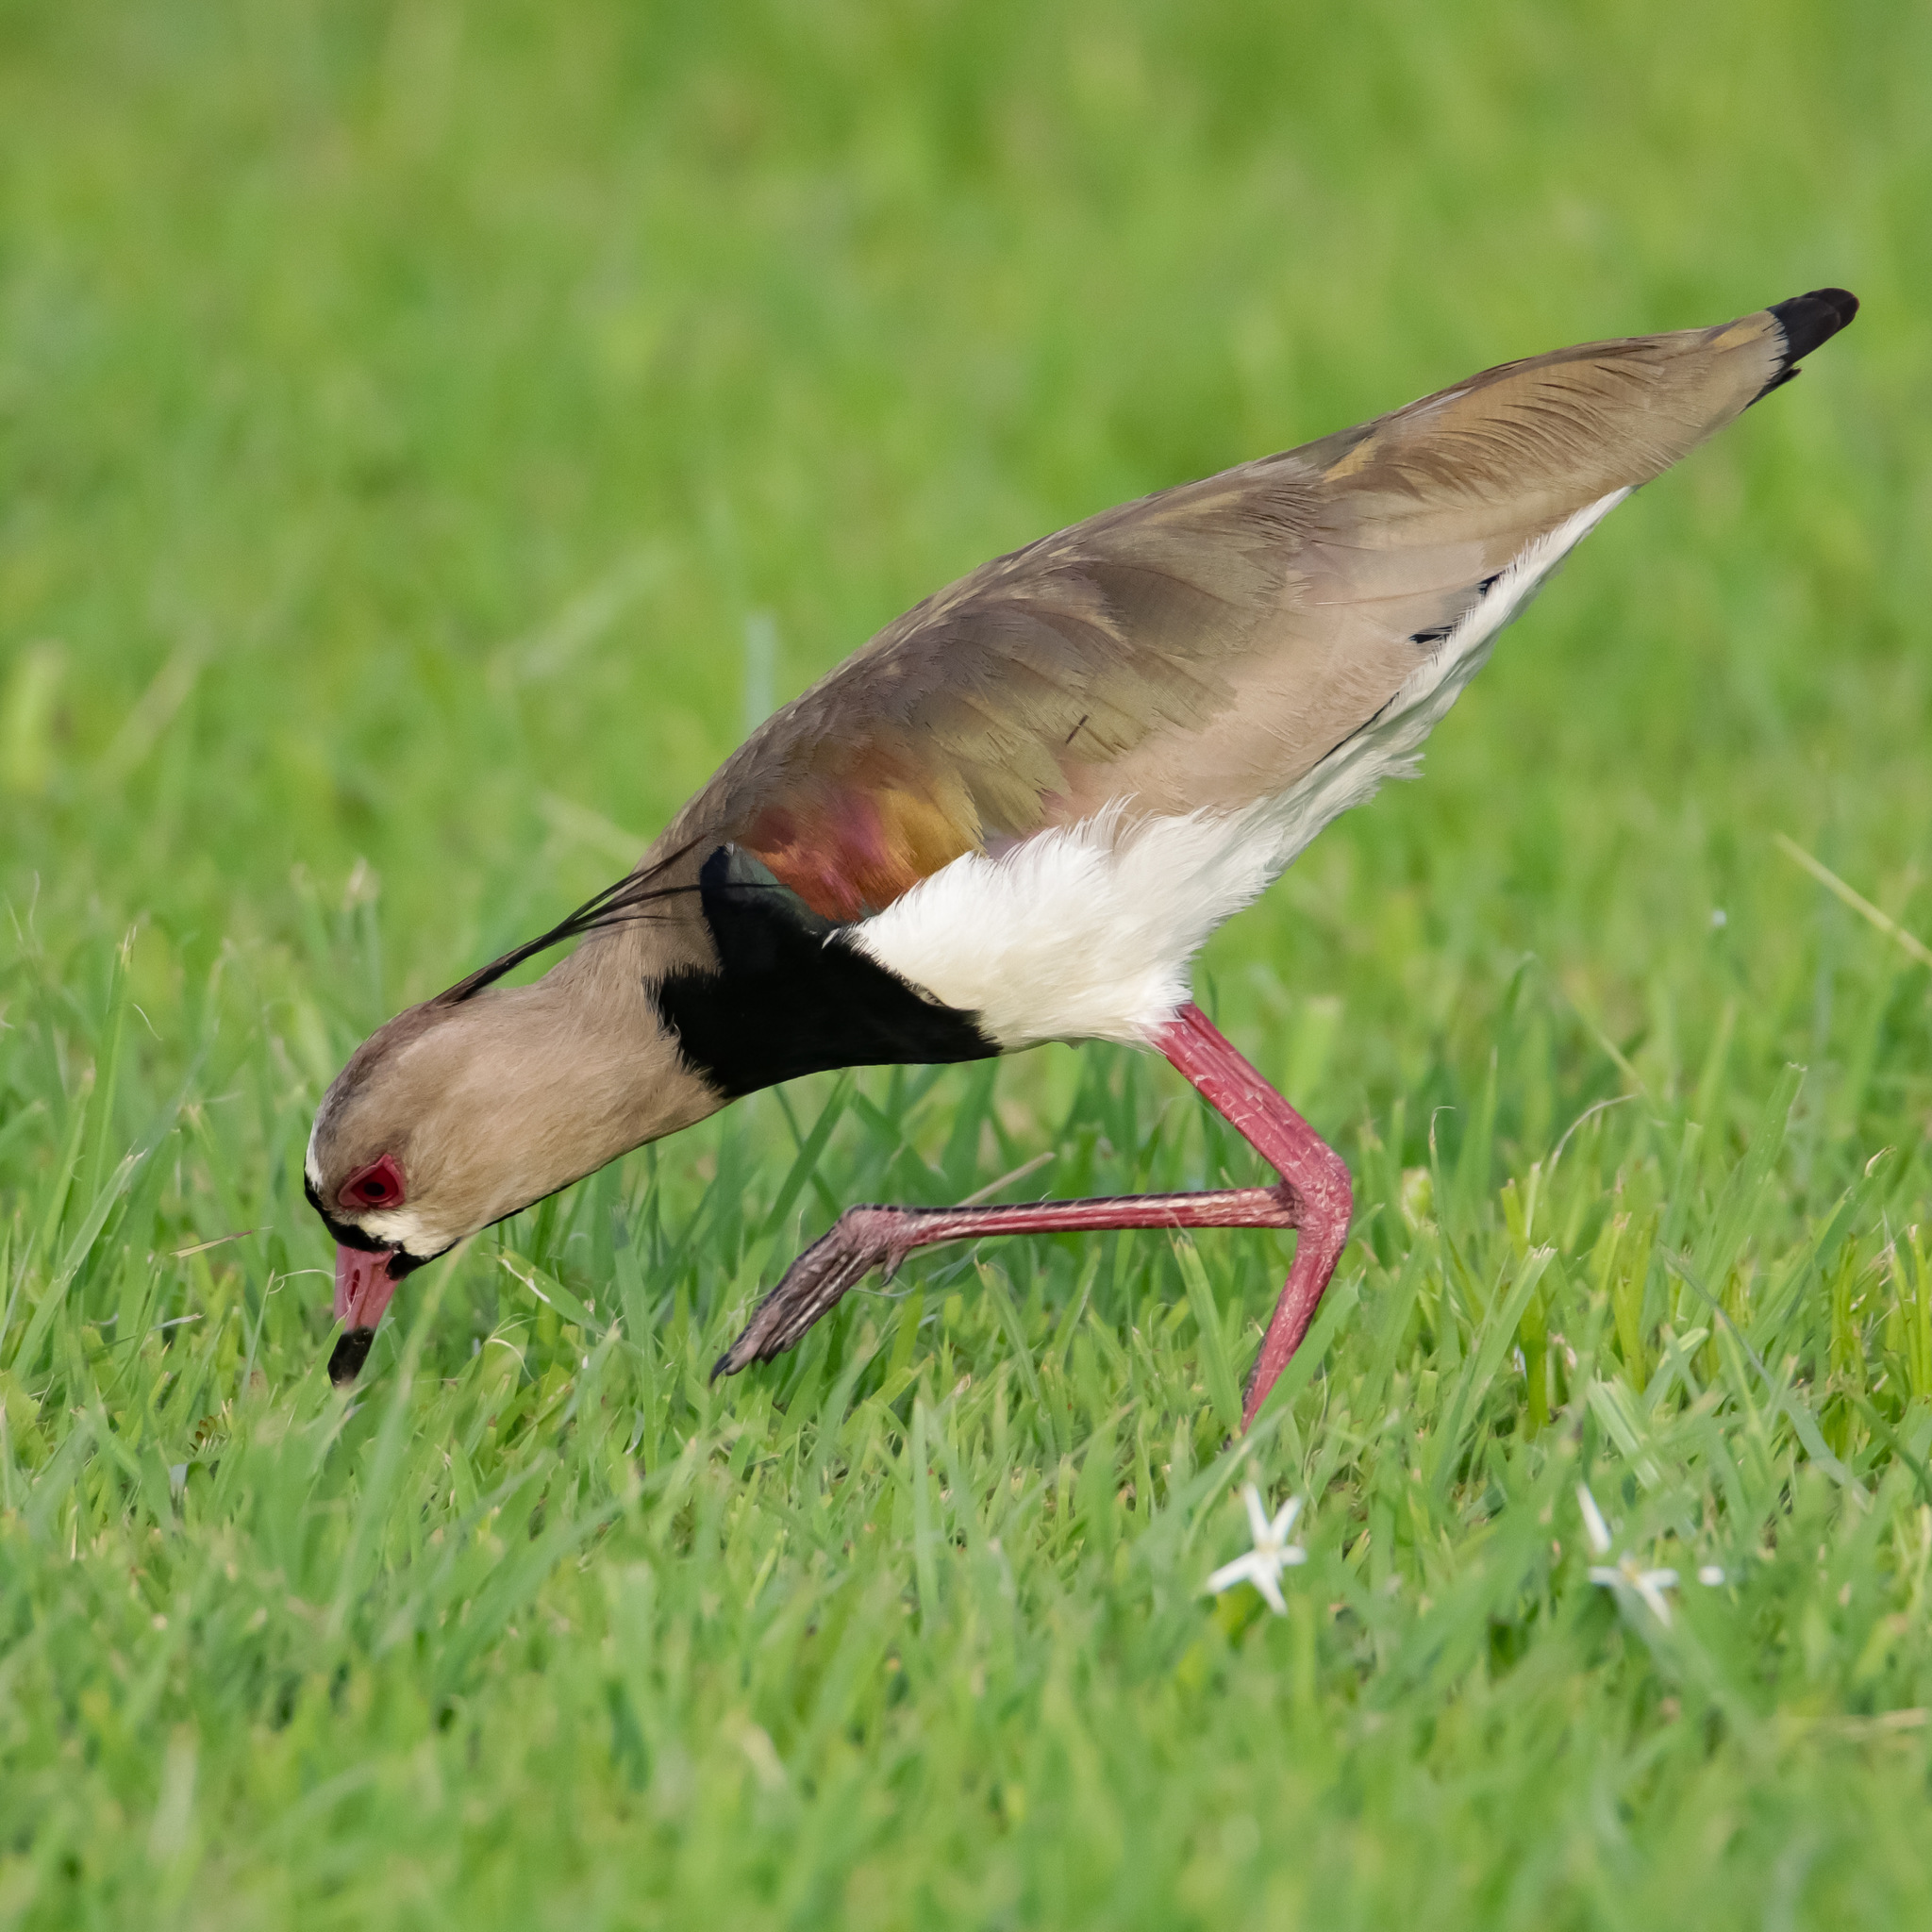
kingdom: Animalia
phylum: Chordata
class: Aves
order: Charadriiformes
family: Charadriidae
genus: Vanellus
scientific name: Vanellus chilensis
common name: Southern lapwing
